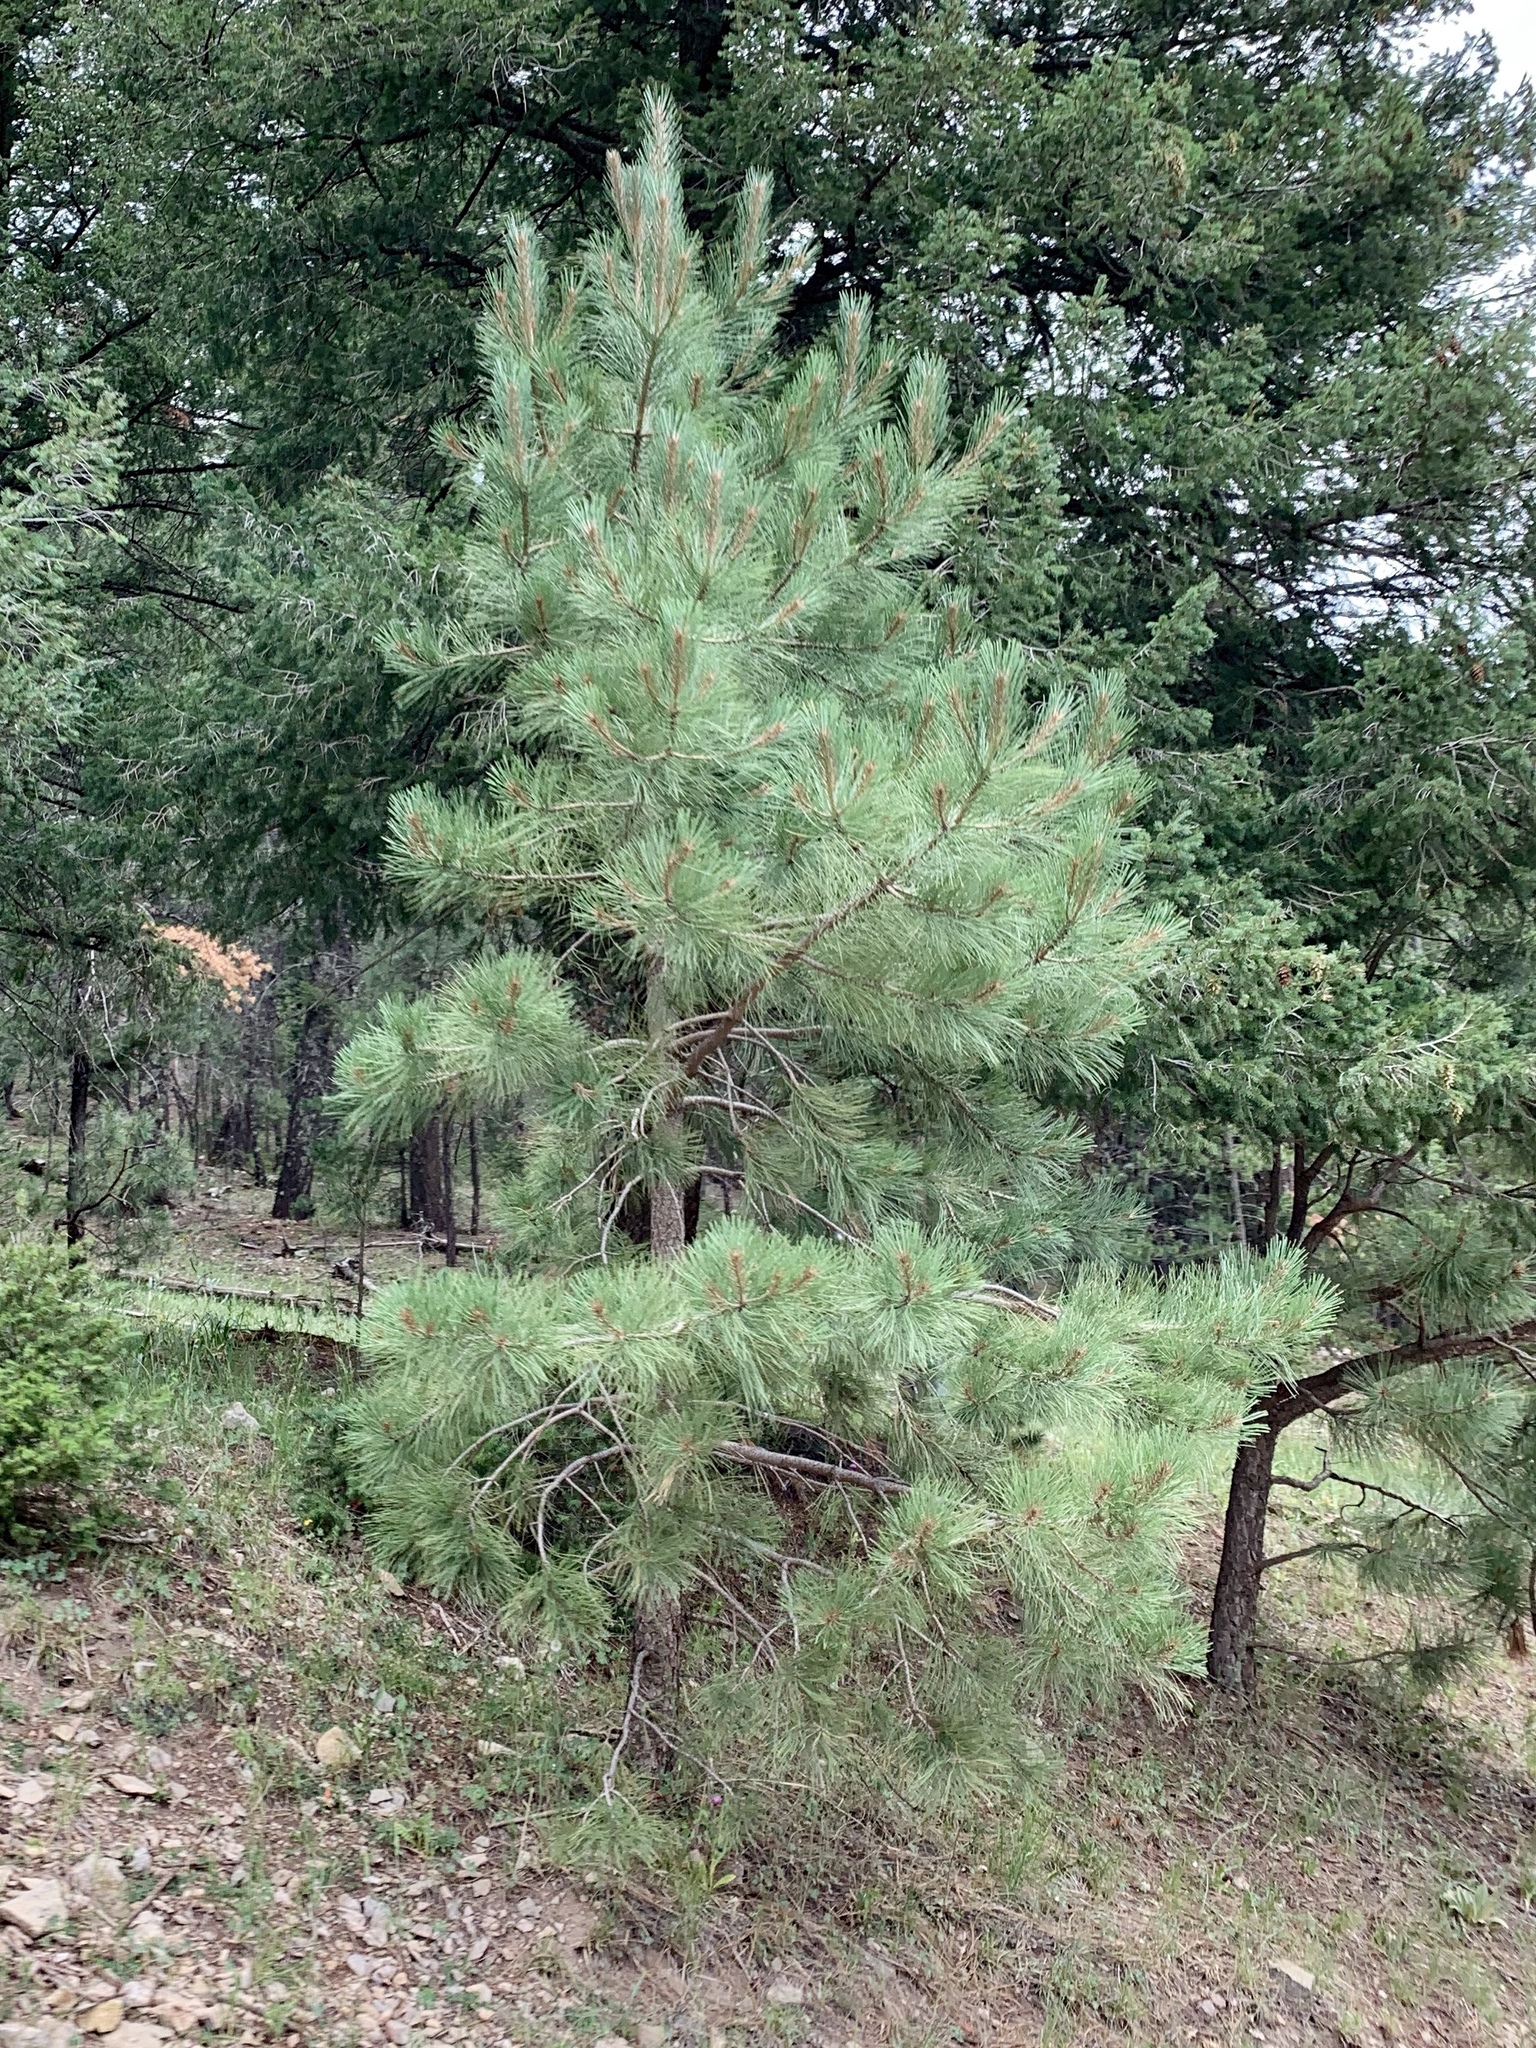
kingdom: Plantae
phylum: Tracheophyta
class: Pinopsida
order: Pinales
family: Pinaceae
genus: Pinus
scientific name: Pinus ponderosa
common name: Western yellow-pine
